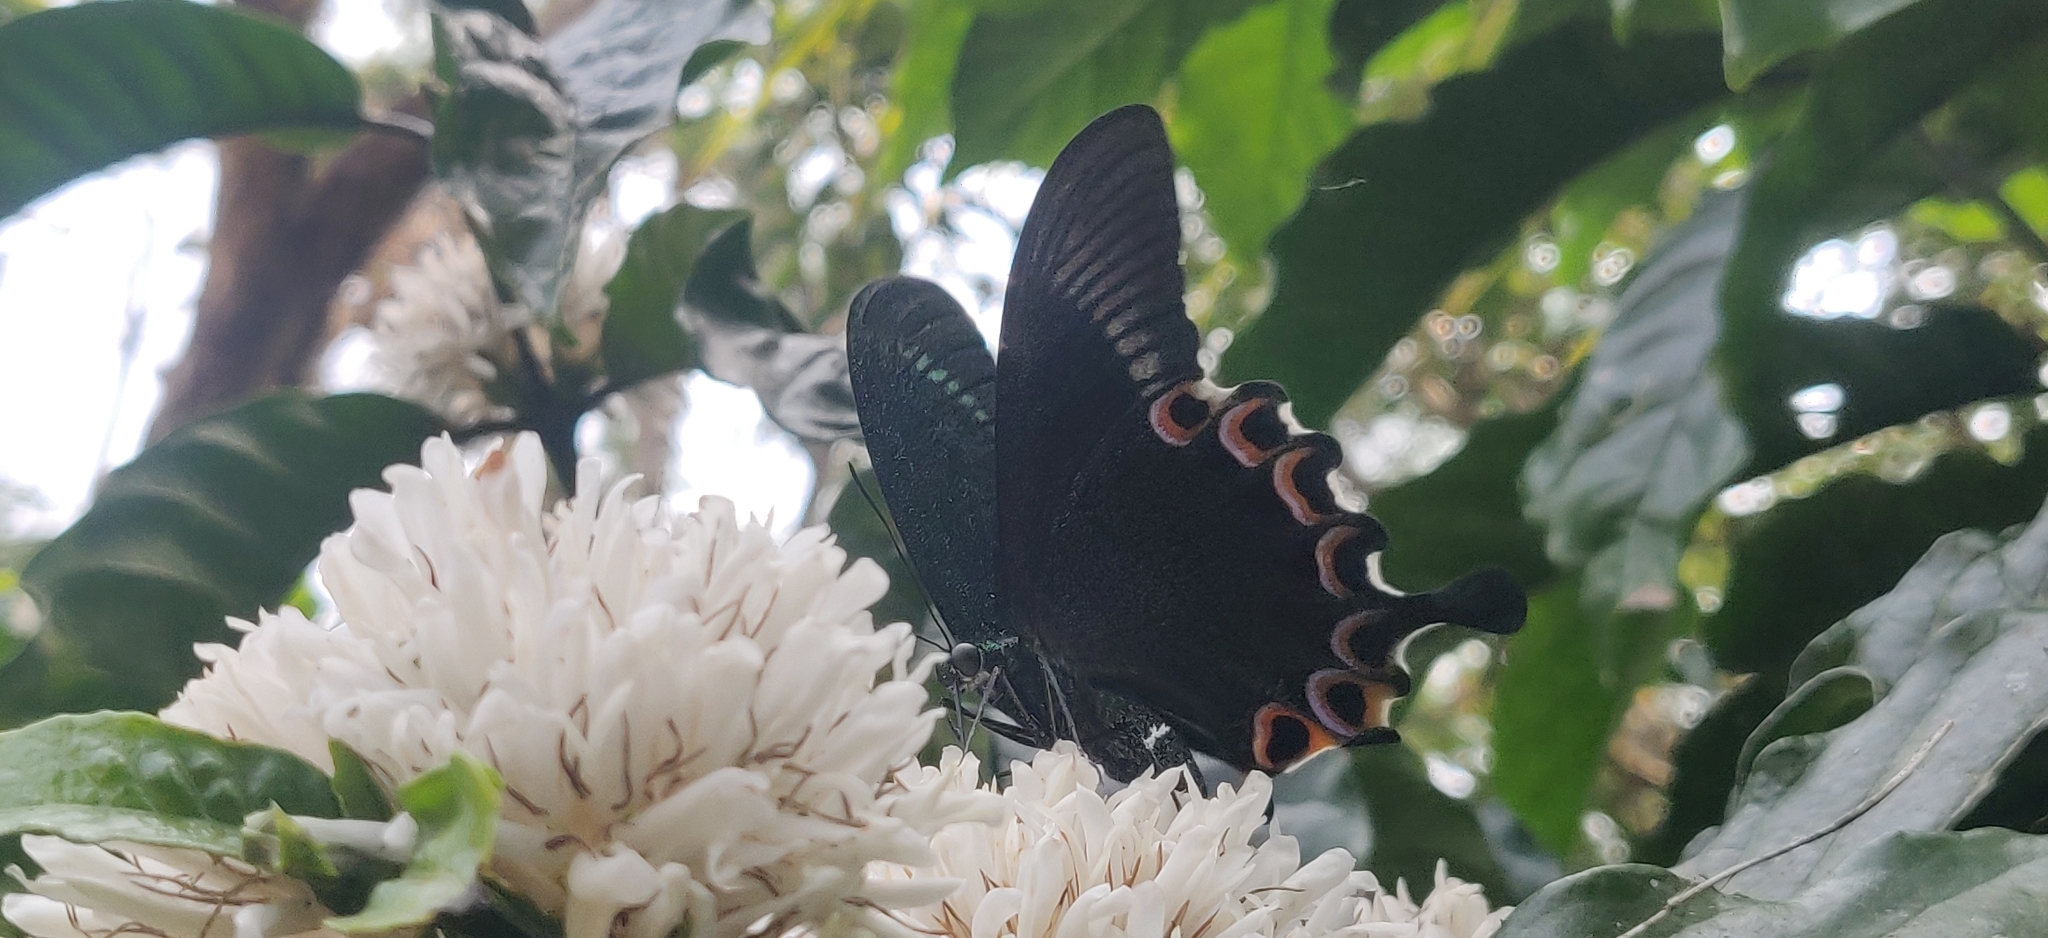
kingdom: Animalia
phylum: Arthropoda
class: Insecta
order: Lepidoptera
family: Papilionidae
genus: Papilio
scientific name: Papilio paris
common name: Paris peacock
